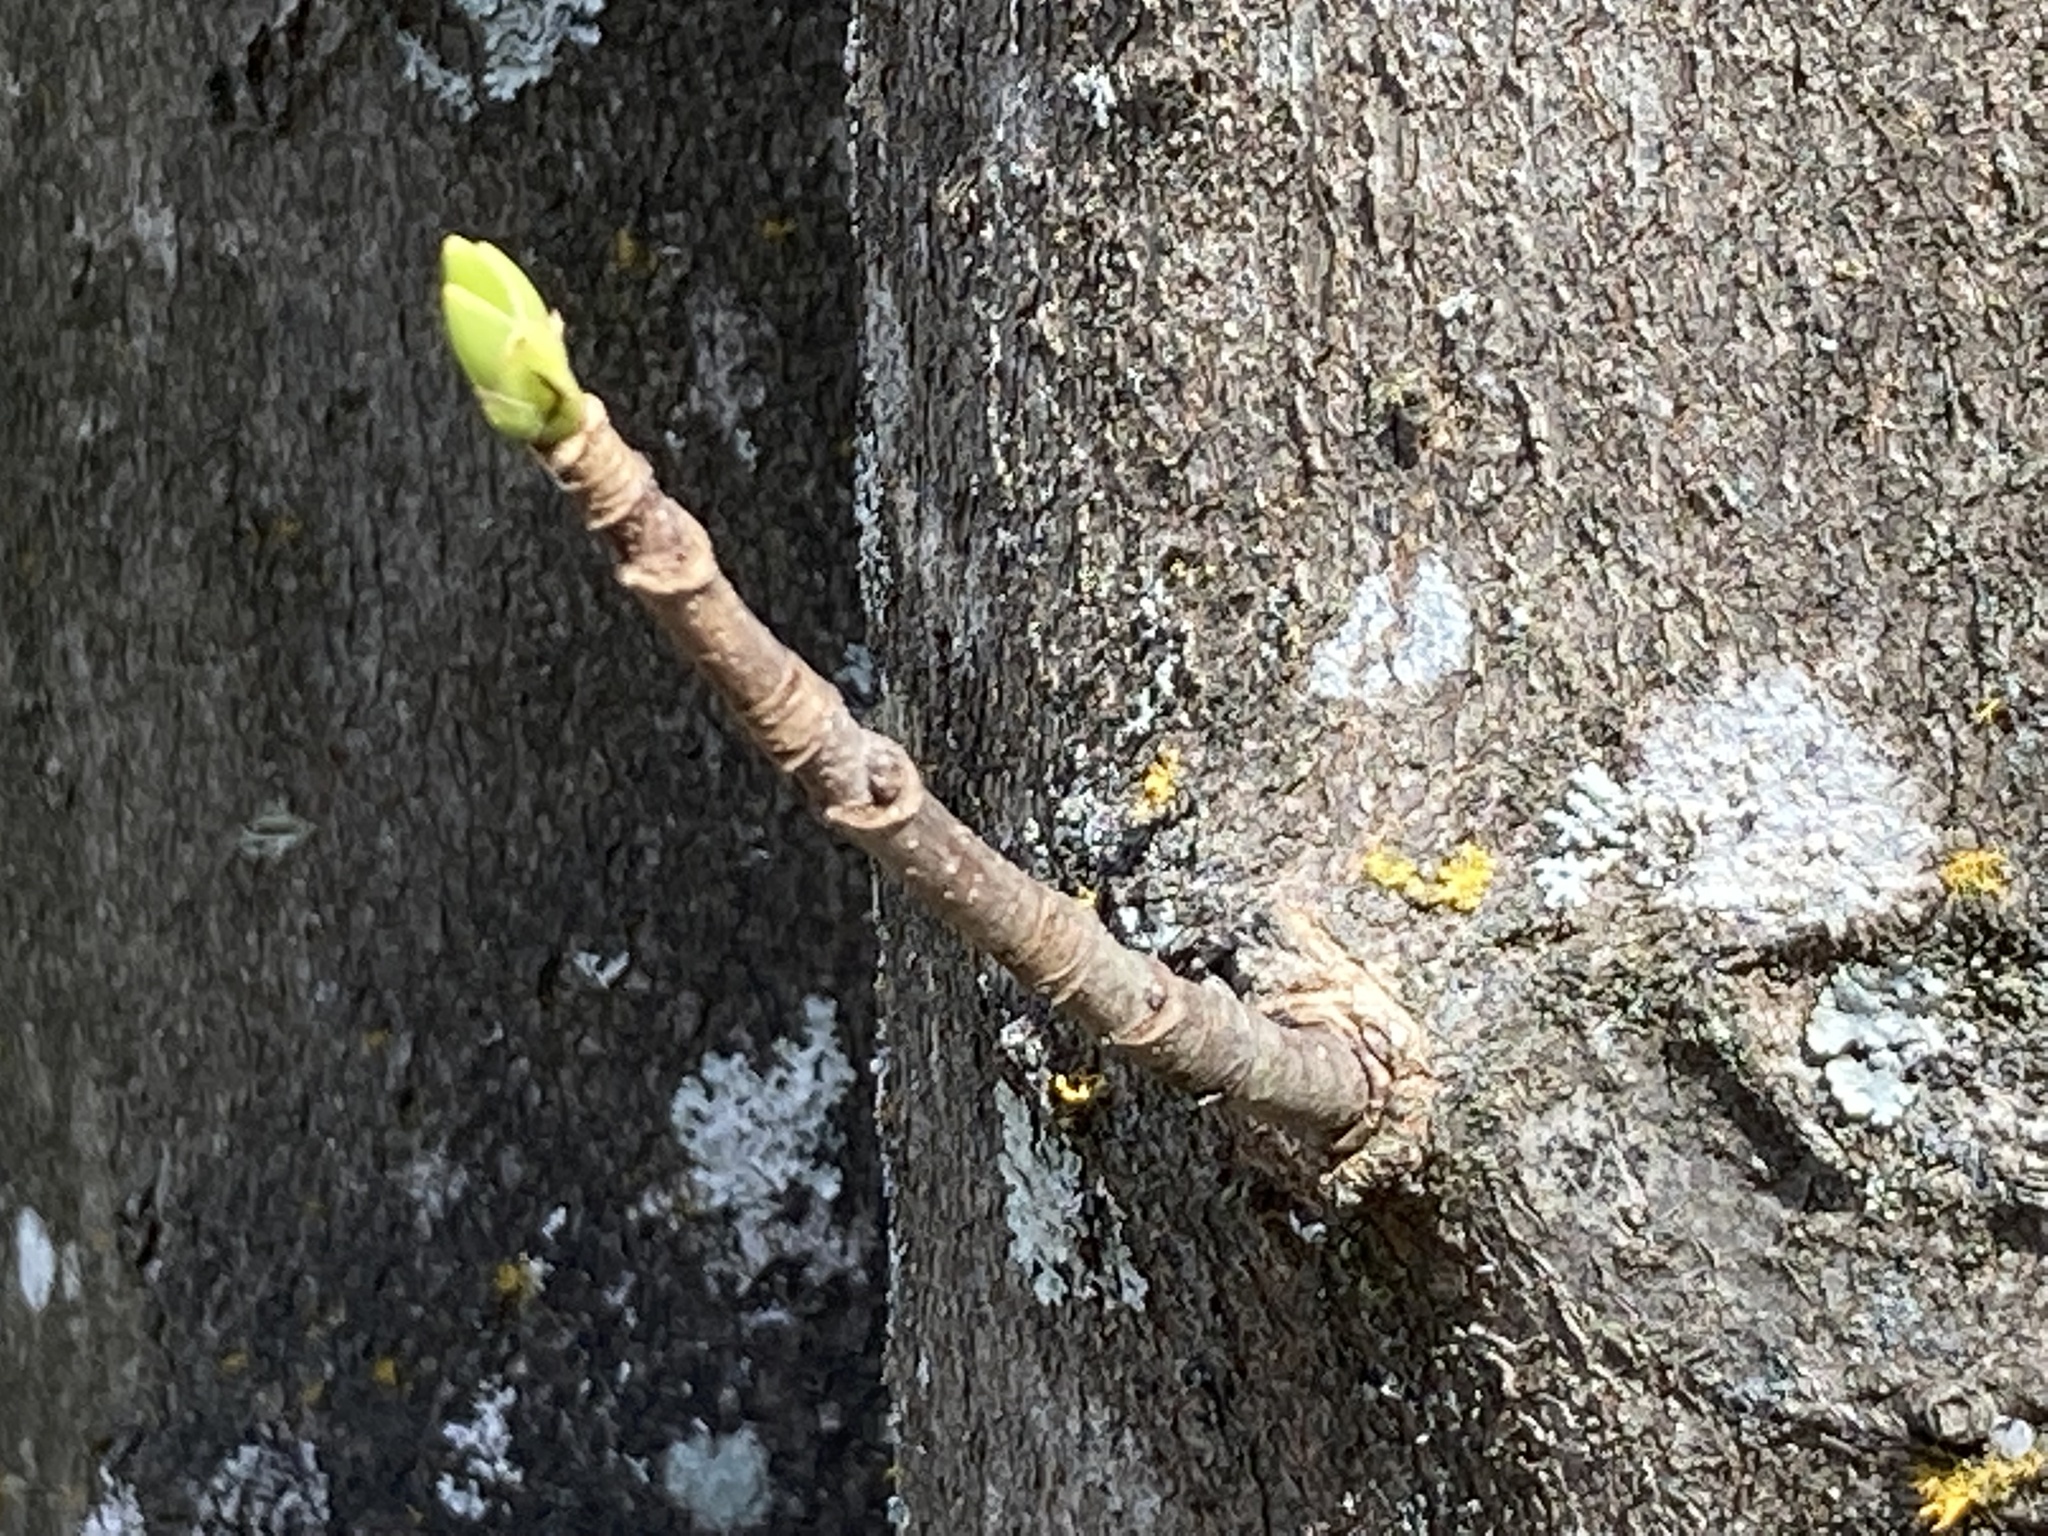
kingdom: Plantae
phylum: Tracheophyta
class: Magnoliopsida
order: Sapindales
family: Sapindaceae
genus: Acer
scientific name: Acer pseudoplatanus
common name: Sycamore
